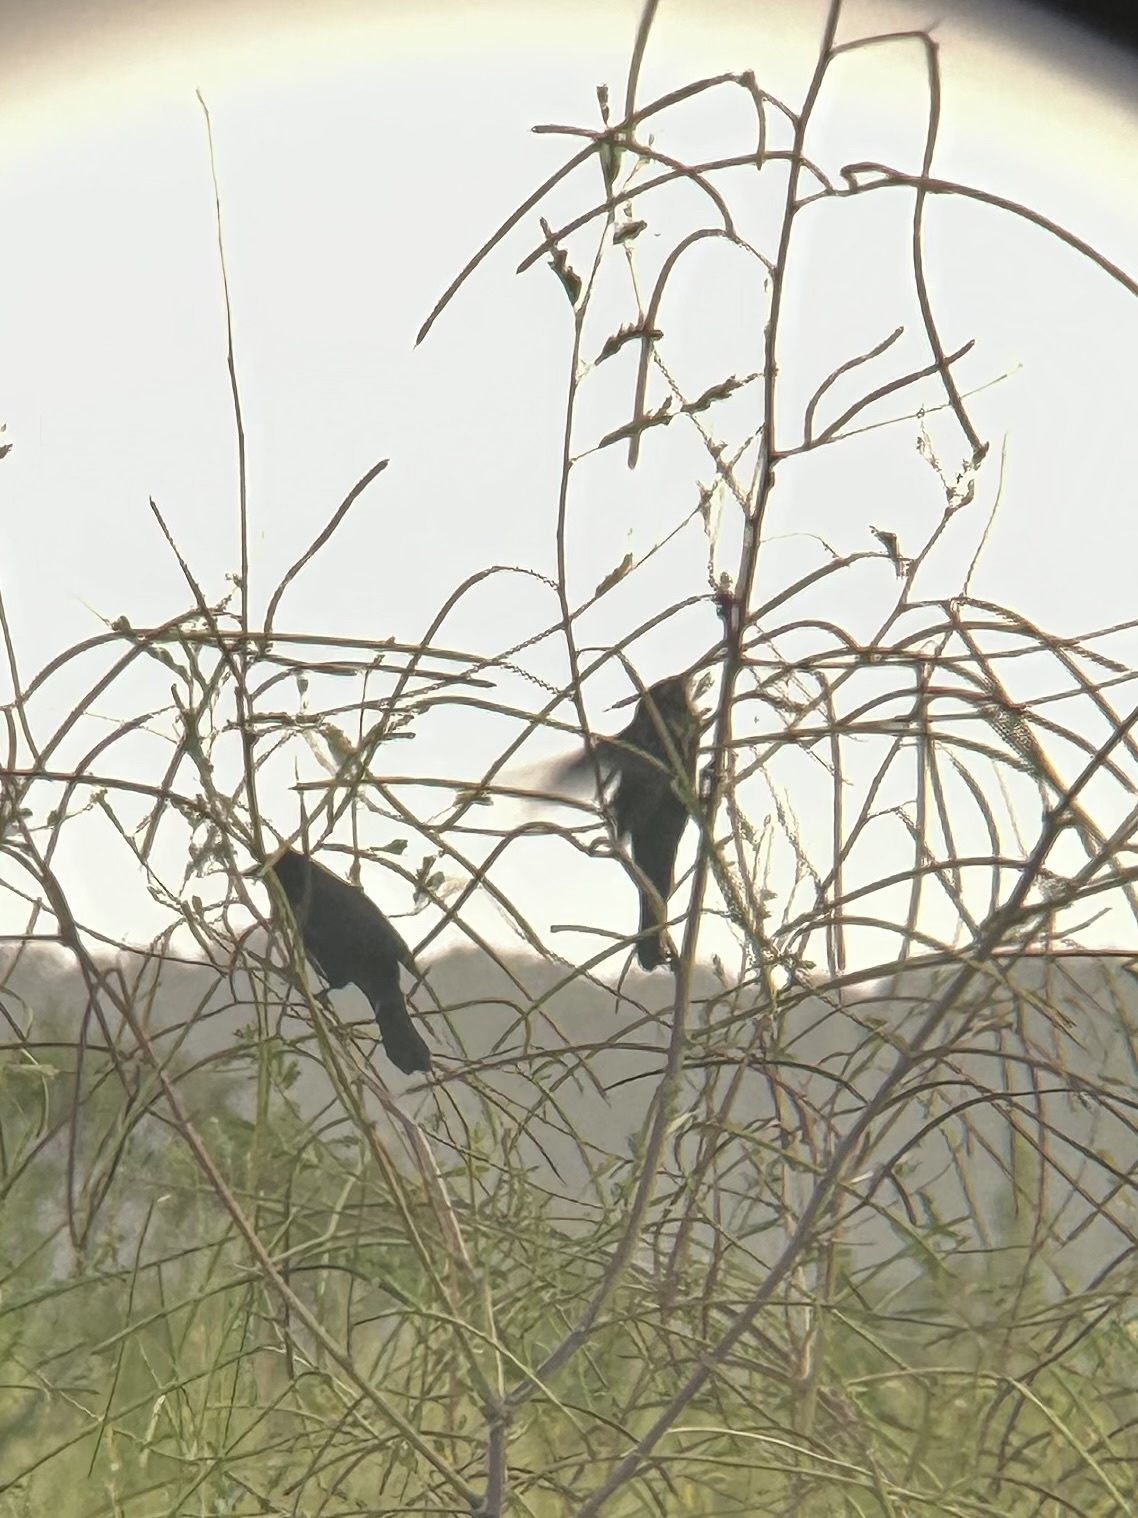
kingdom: Animalia
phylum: Chordata
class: Aves
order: Passeriformes
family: Icteridae
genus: Agelaius
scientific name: Agelaius phoeniceus
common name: Red-winged blackbird
